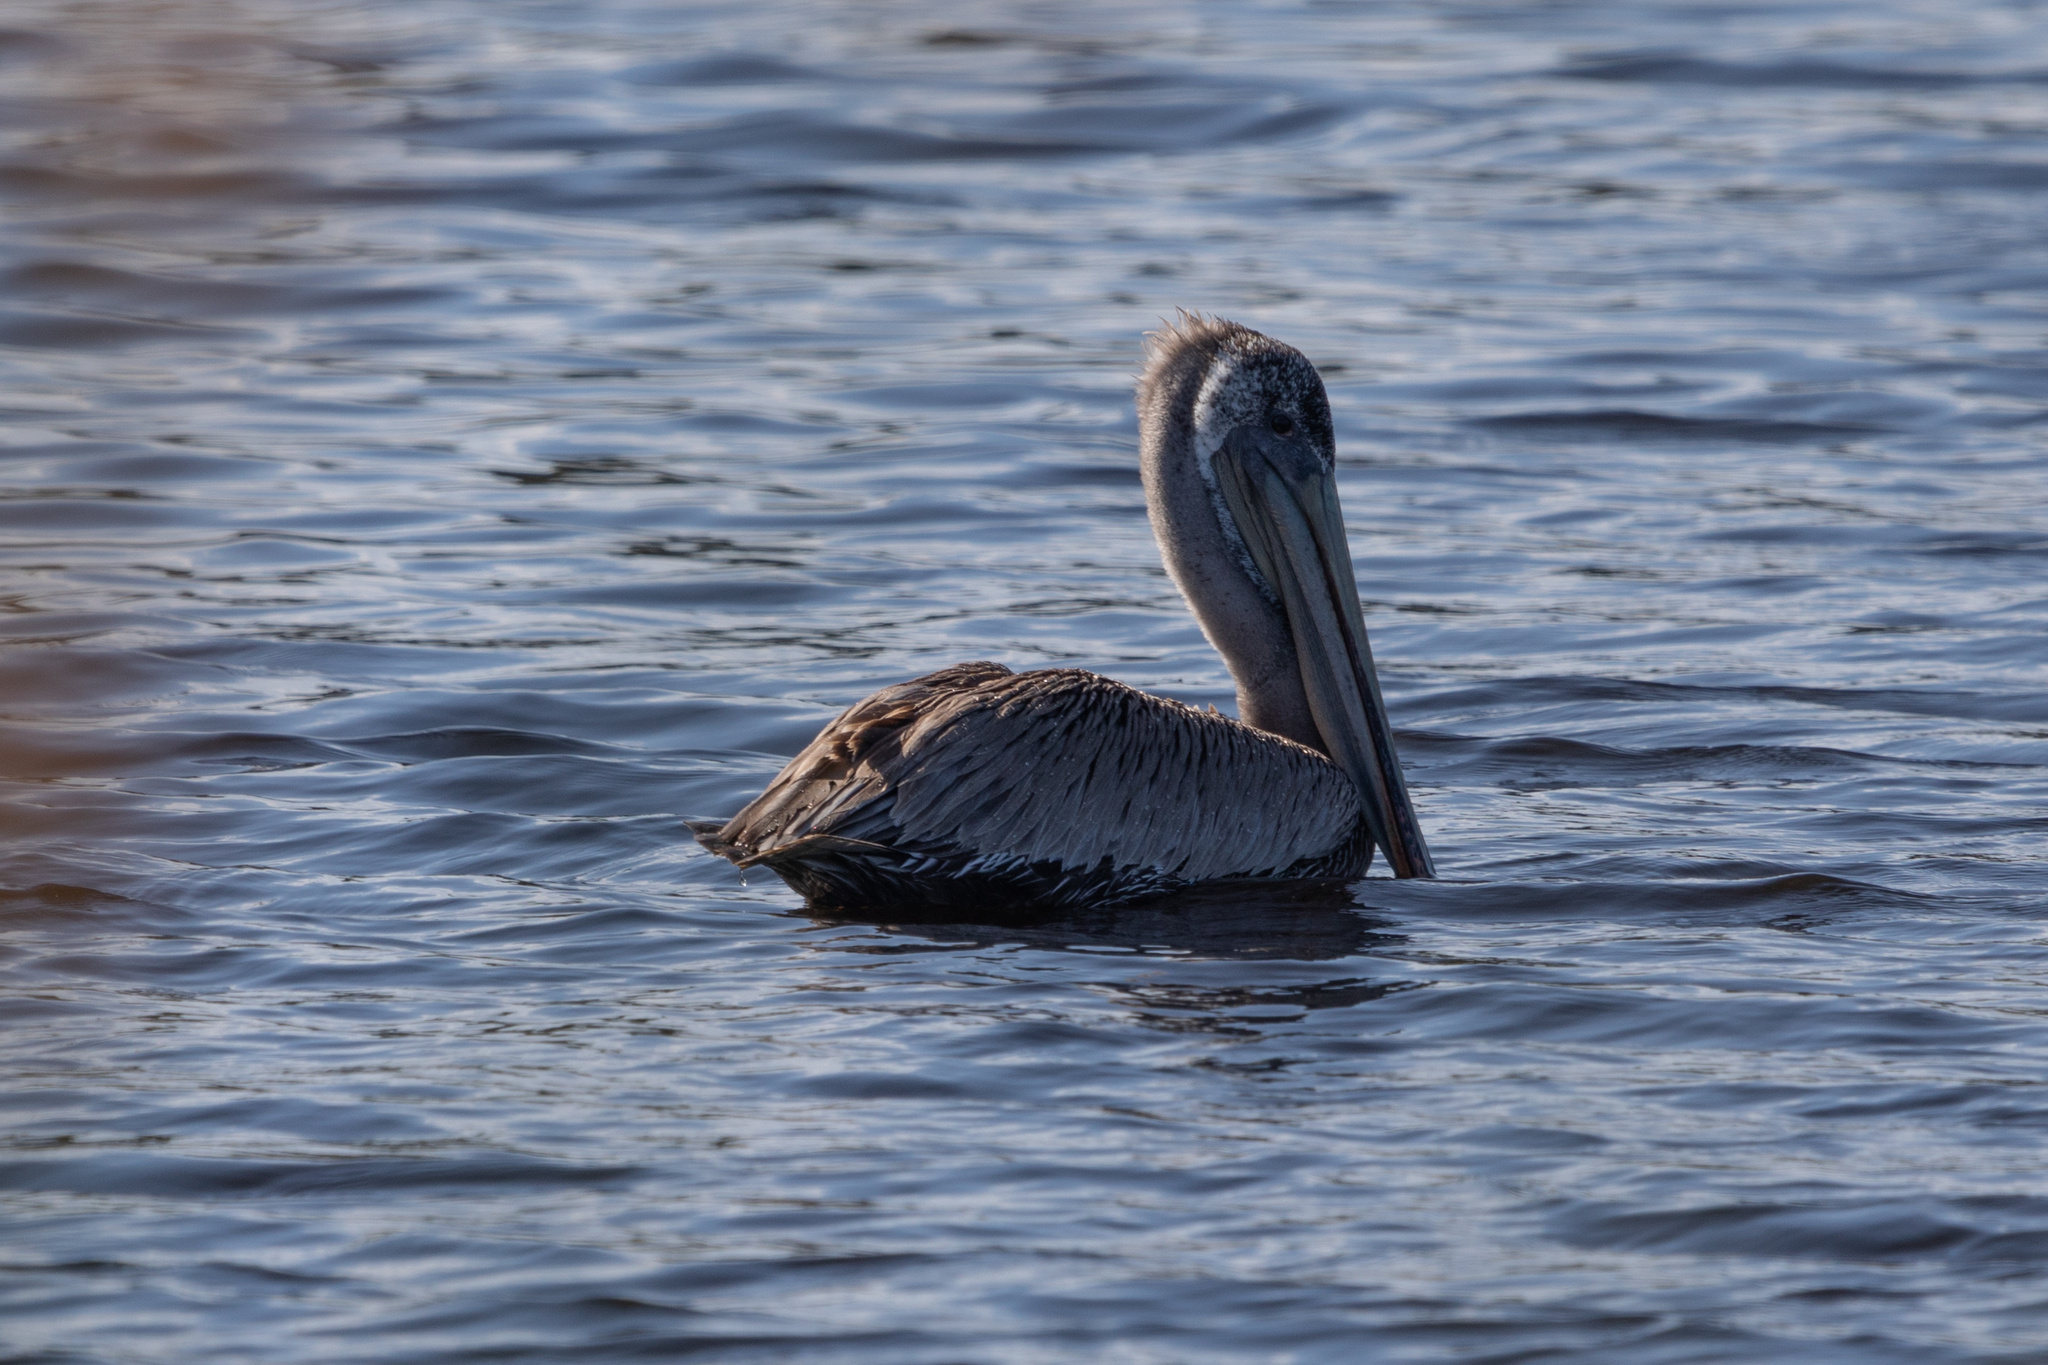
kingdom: Animalia
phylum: Chordata
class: Aves
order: Pelecaniformes
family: Pelecanidae
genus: Pelecanus
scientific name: Pelecanus occidentalis
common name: Brown pelican
